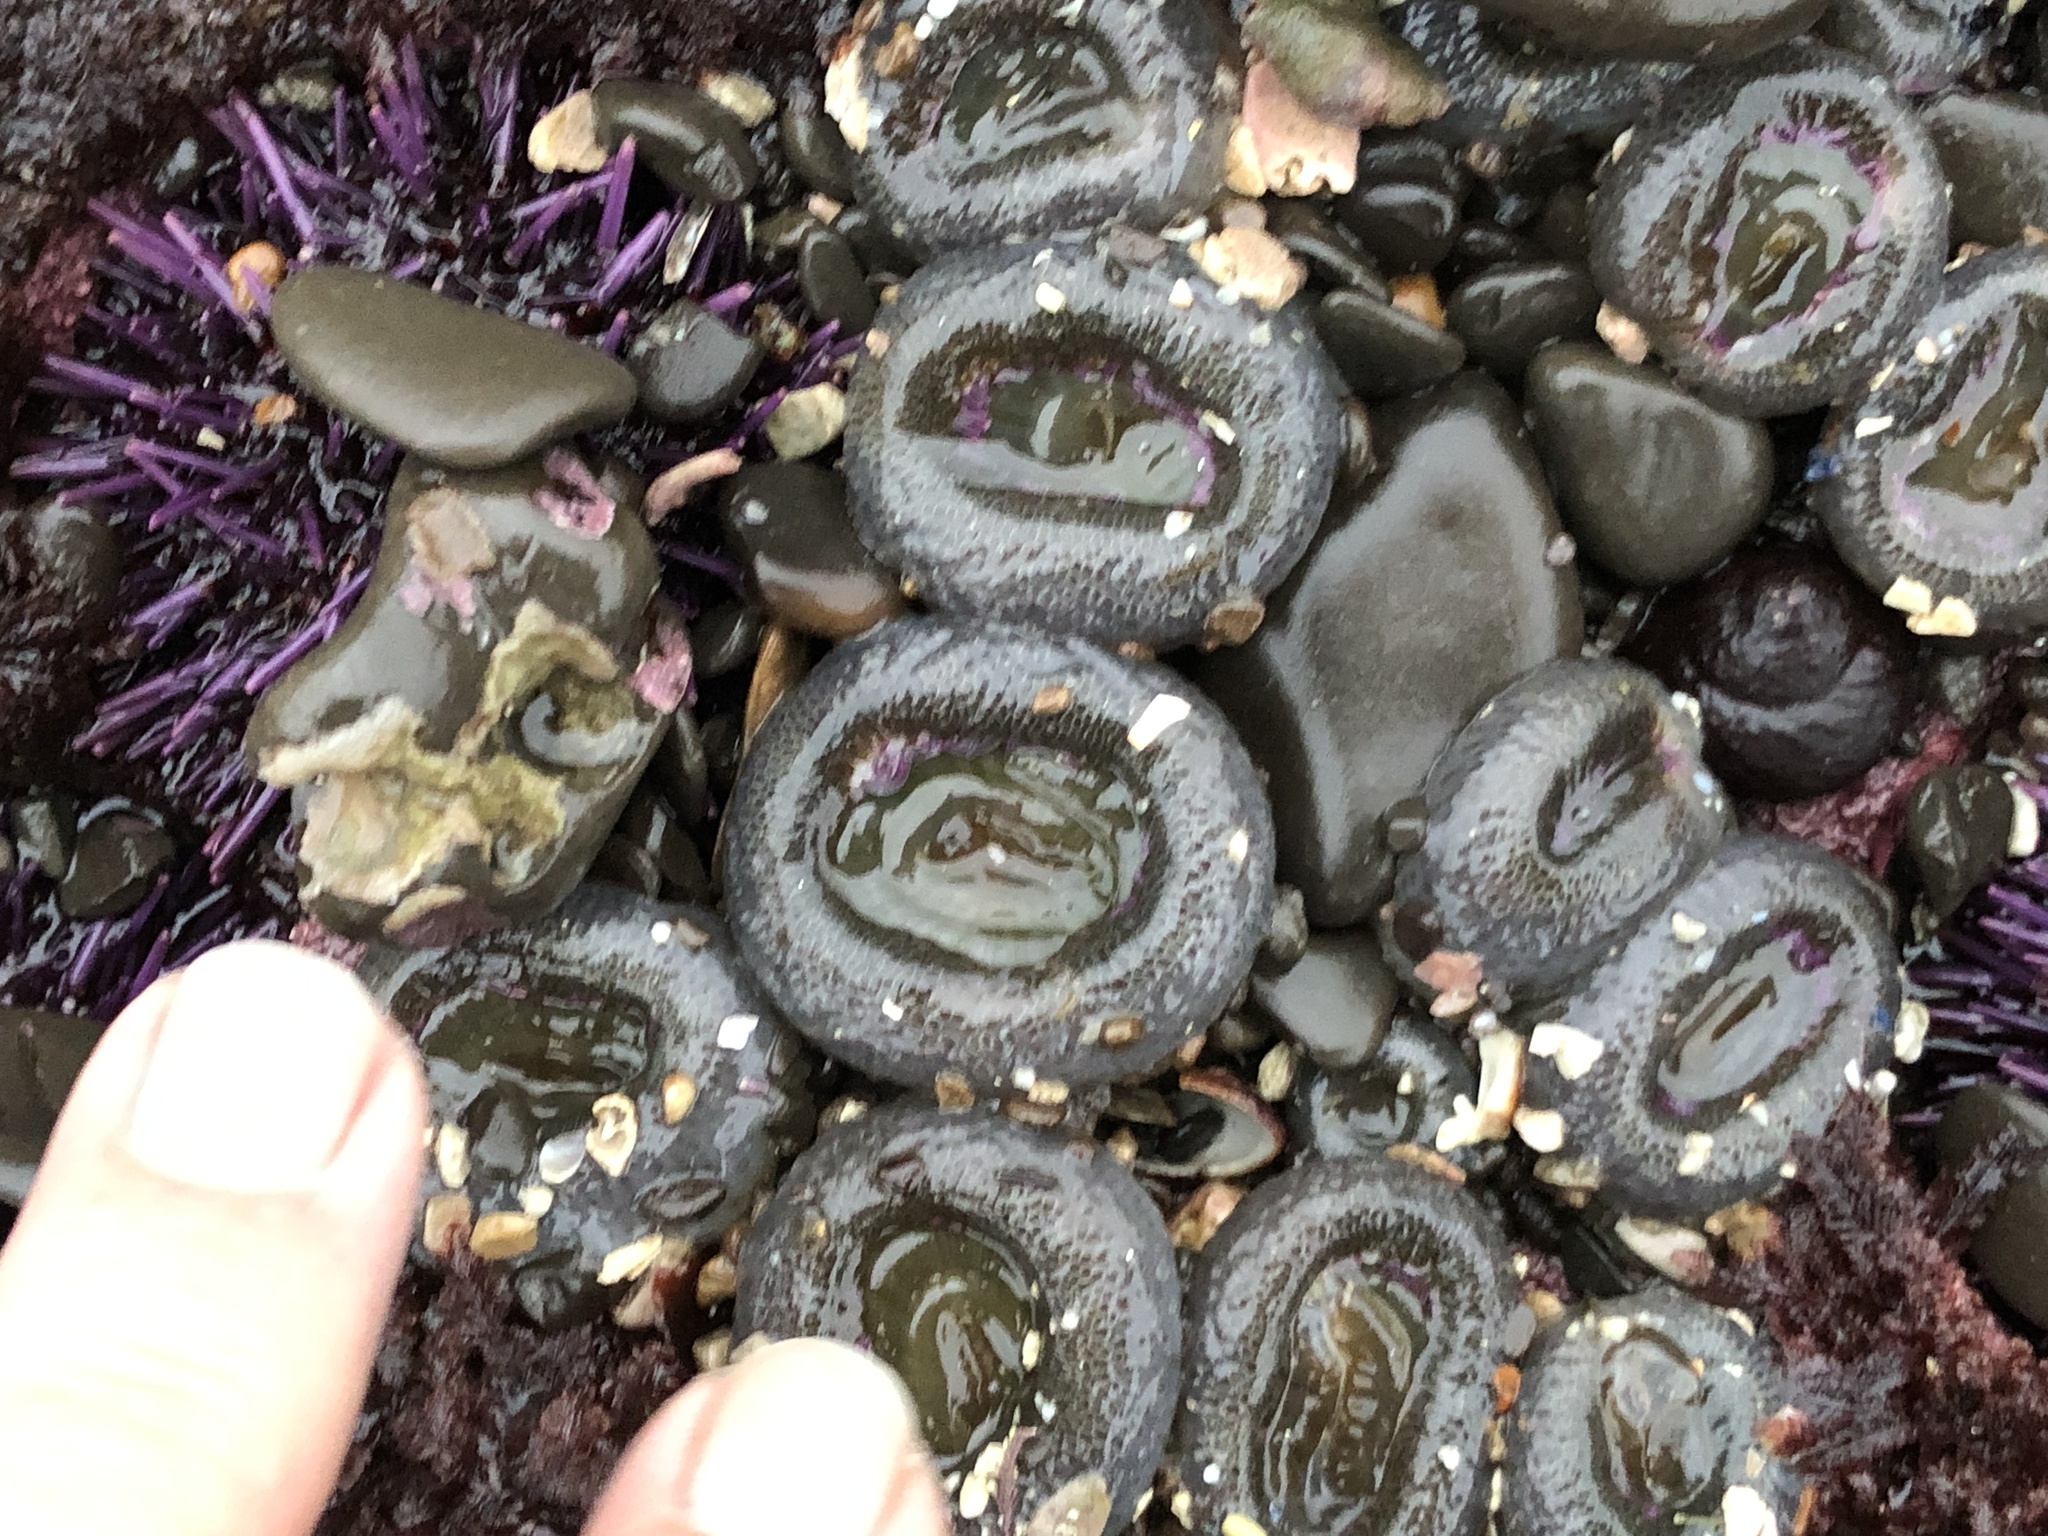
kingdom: Animalia
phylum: Cnidaria
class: Anthozoa
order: Actiniaria
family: Actiniidae
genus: Anthopleura
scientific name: Anthopleura elegantissima
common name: Clonal anemone
